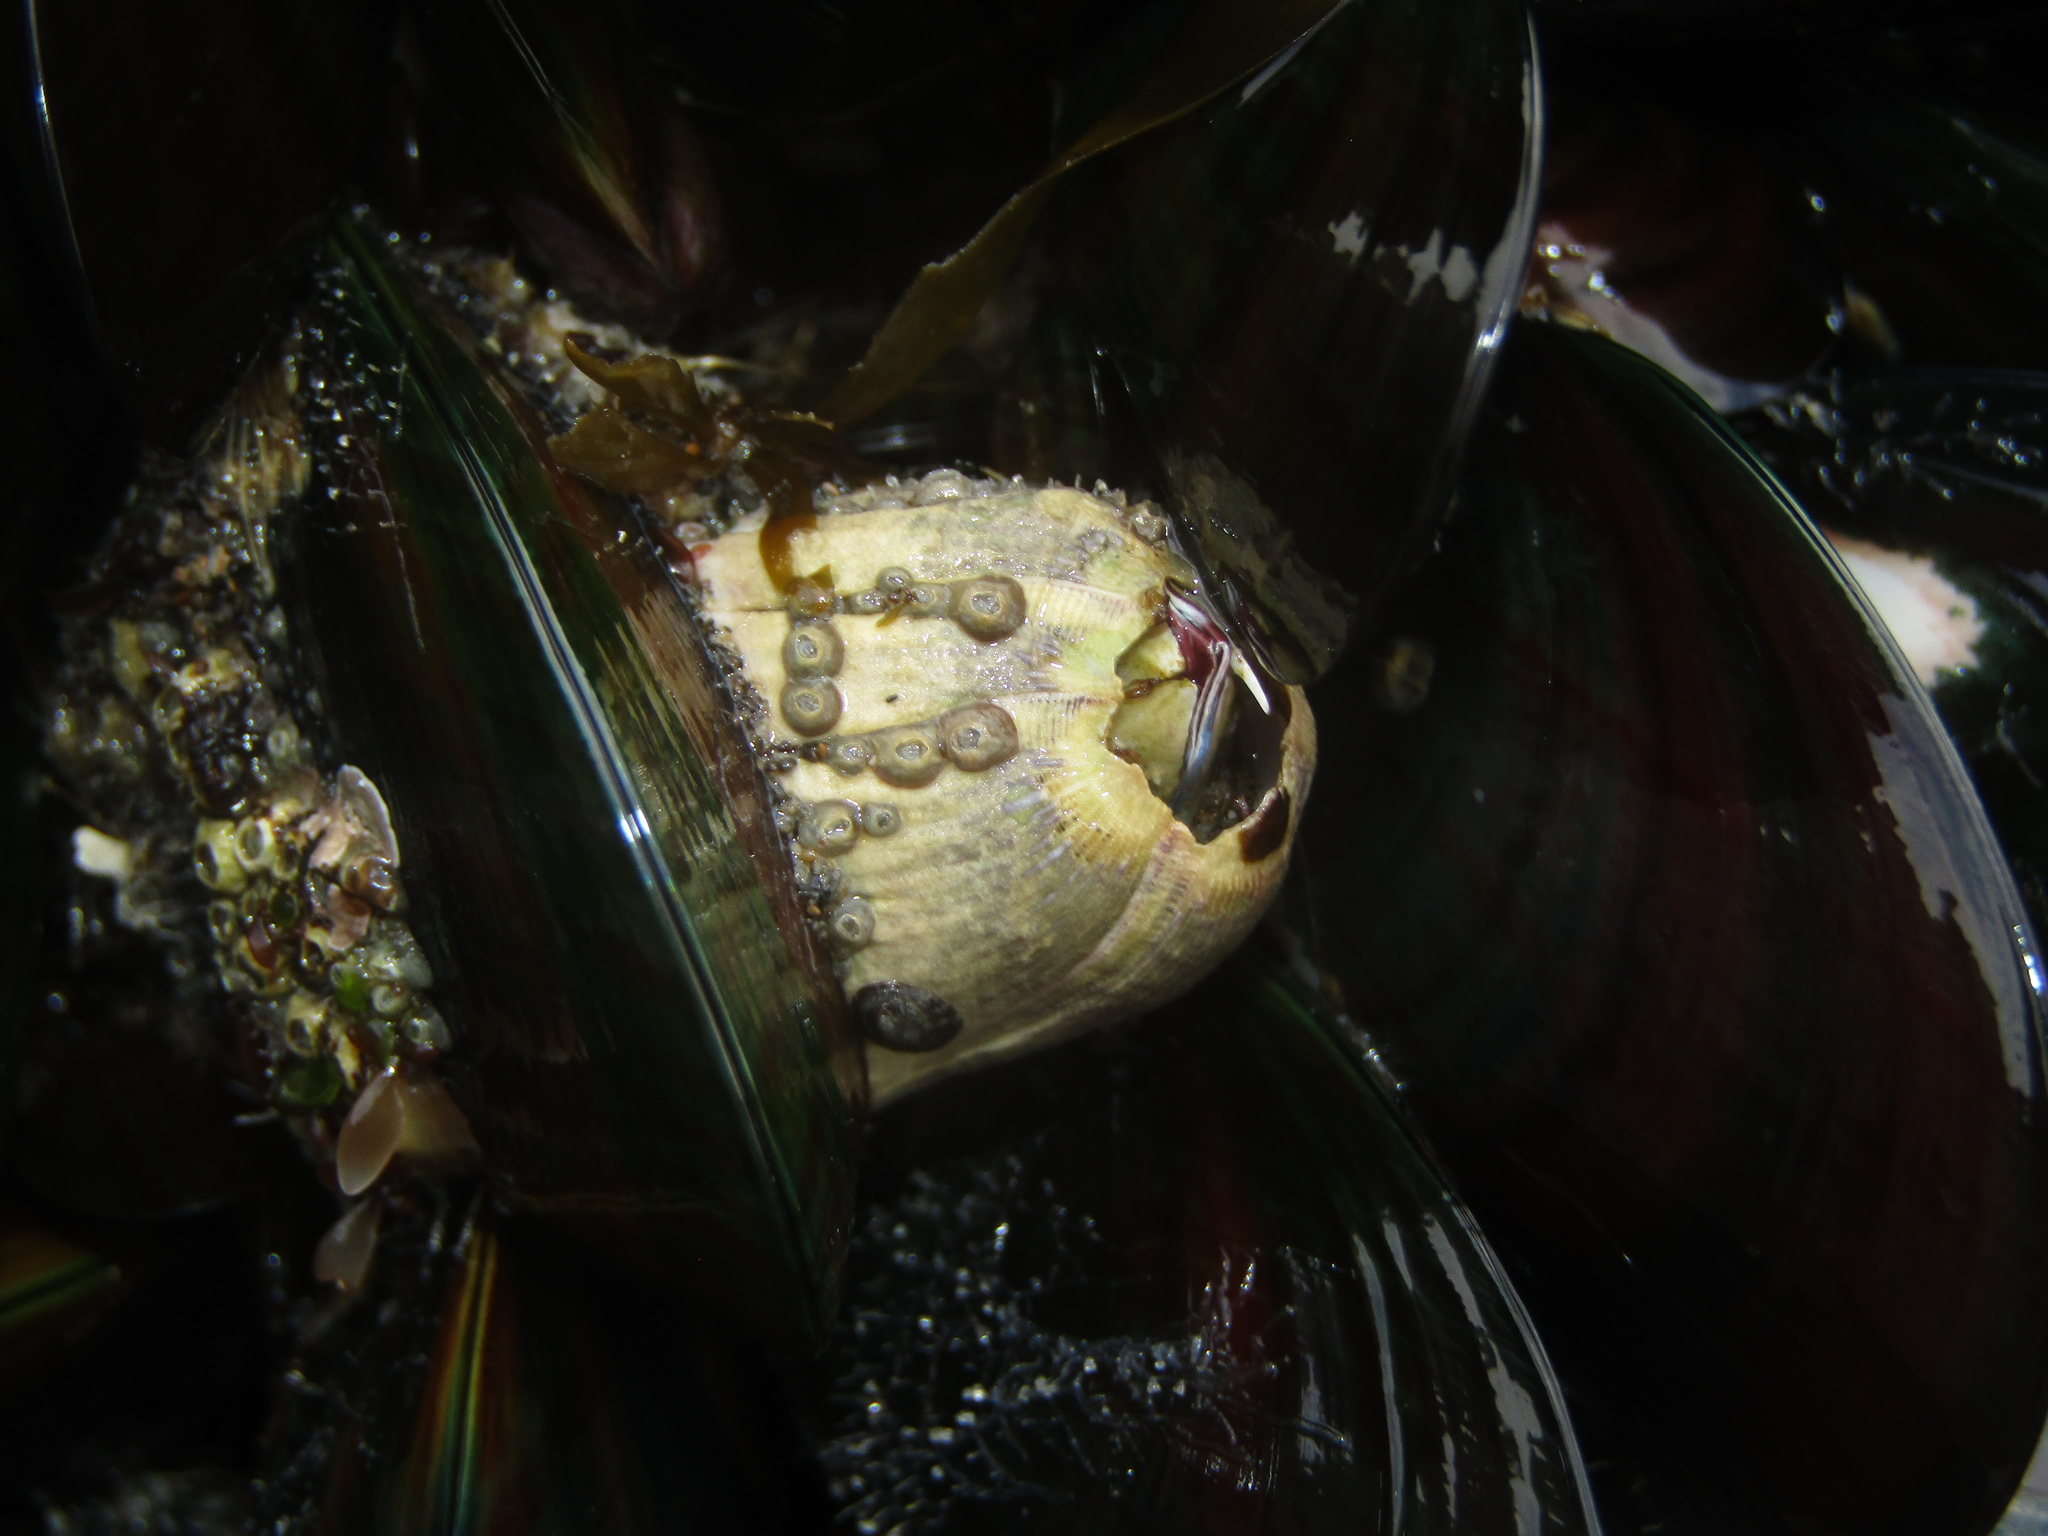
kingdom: Animalia
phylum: Arthropoda
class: Maxillopoda
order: Sessilia
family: Balanidae
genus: Austromegabalanus
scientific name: Austromegabalanus nigrescens
